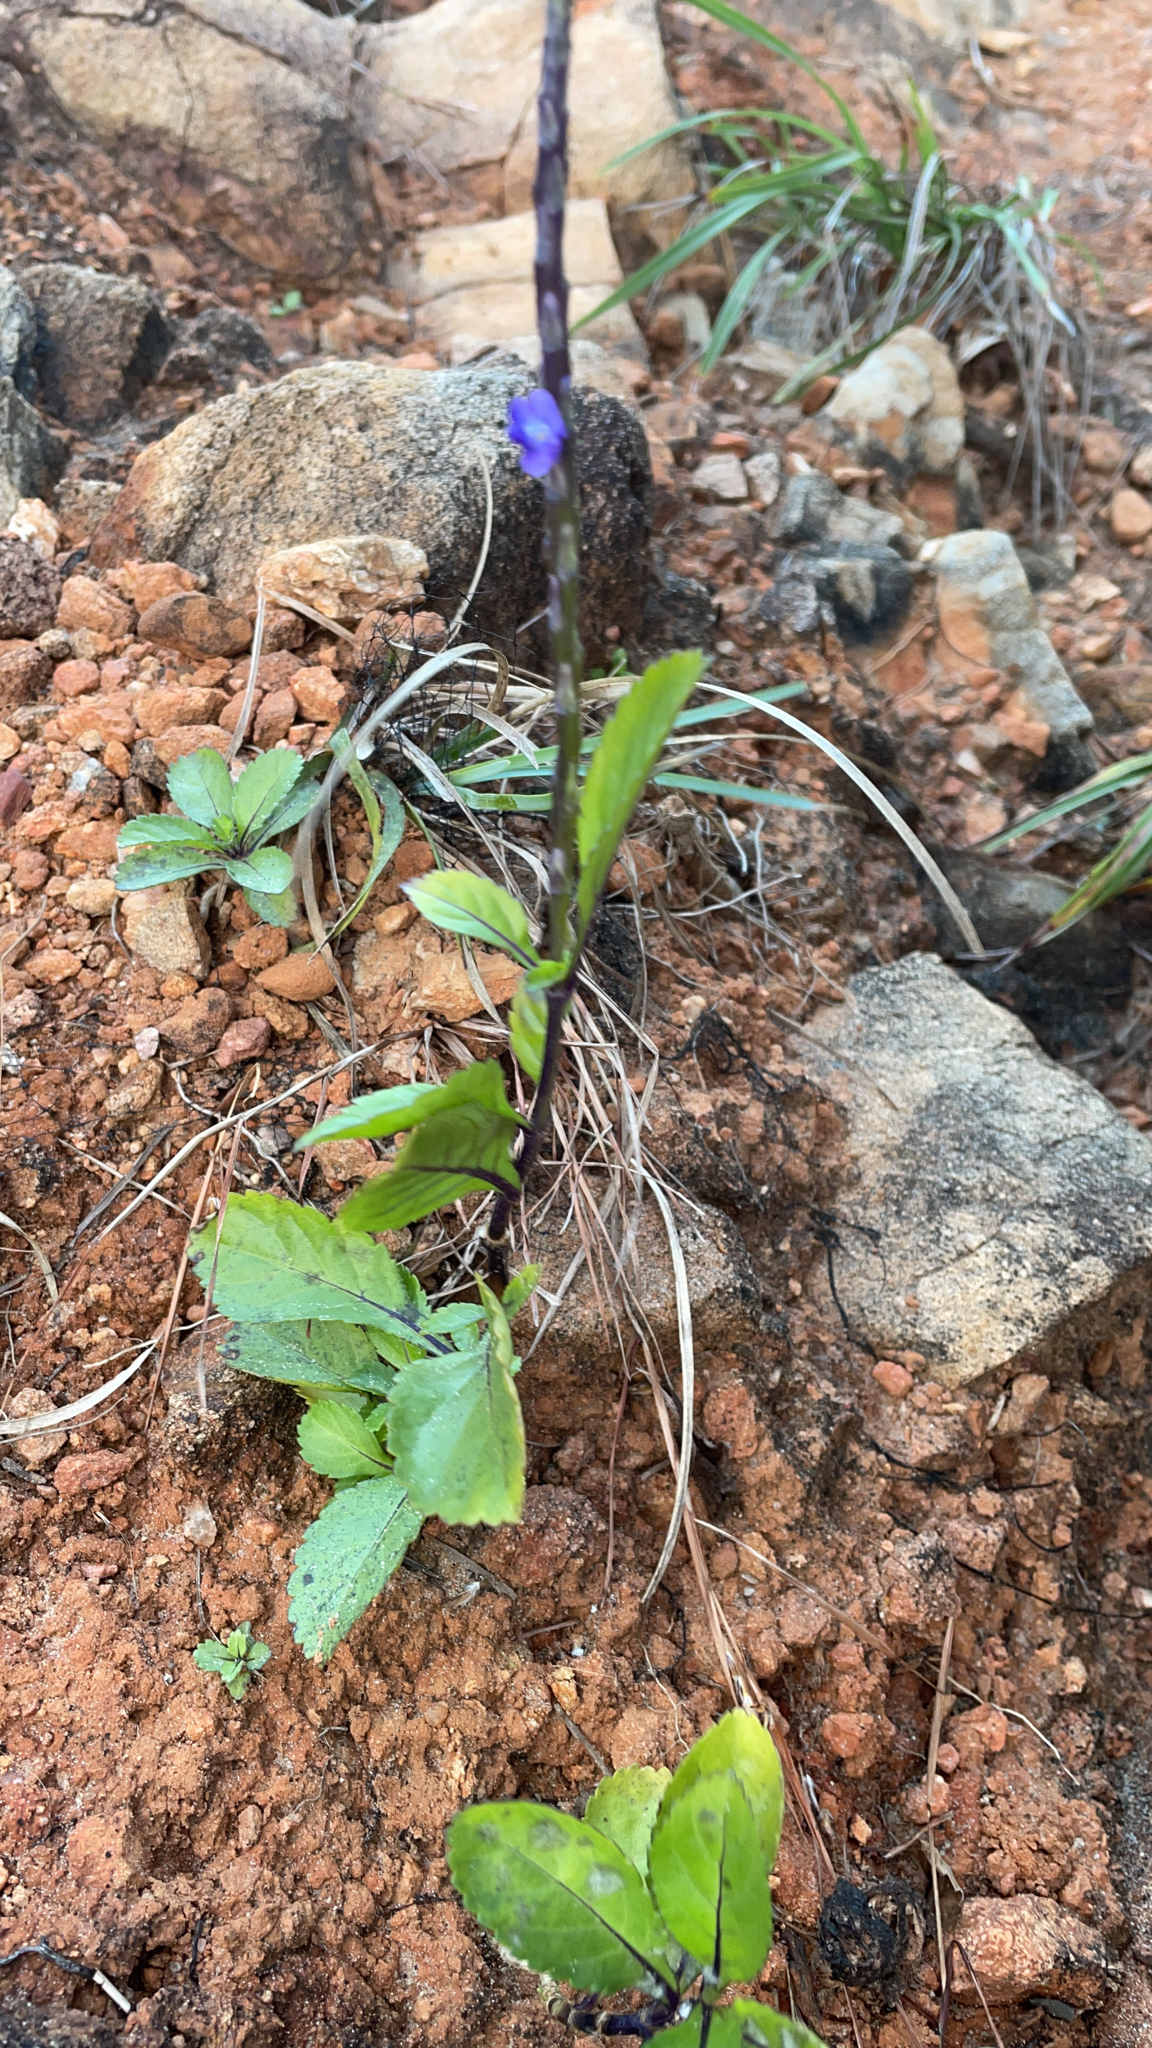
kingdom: Plantae
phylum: Tracheophyta
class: Magnoliopsida
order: Lamiales
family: Verbenaceae
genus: Stachytarpheta
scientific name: Stachytarpheta jamaicensis
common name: Light-blue snakeweed
